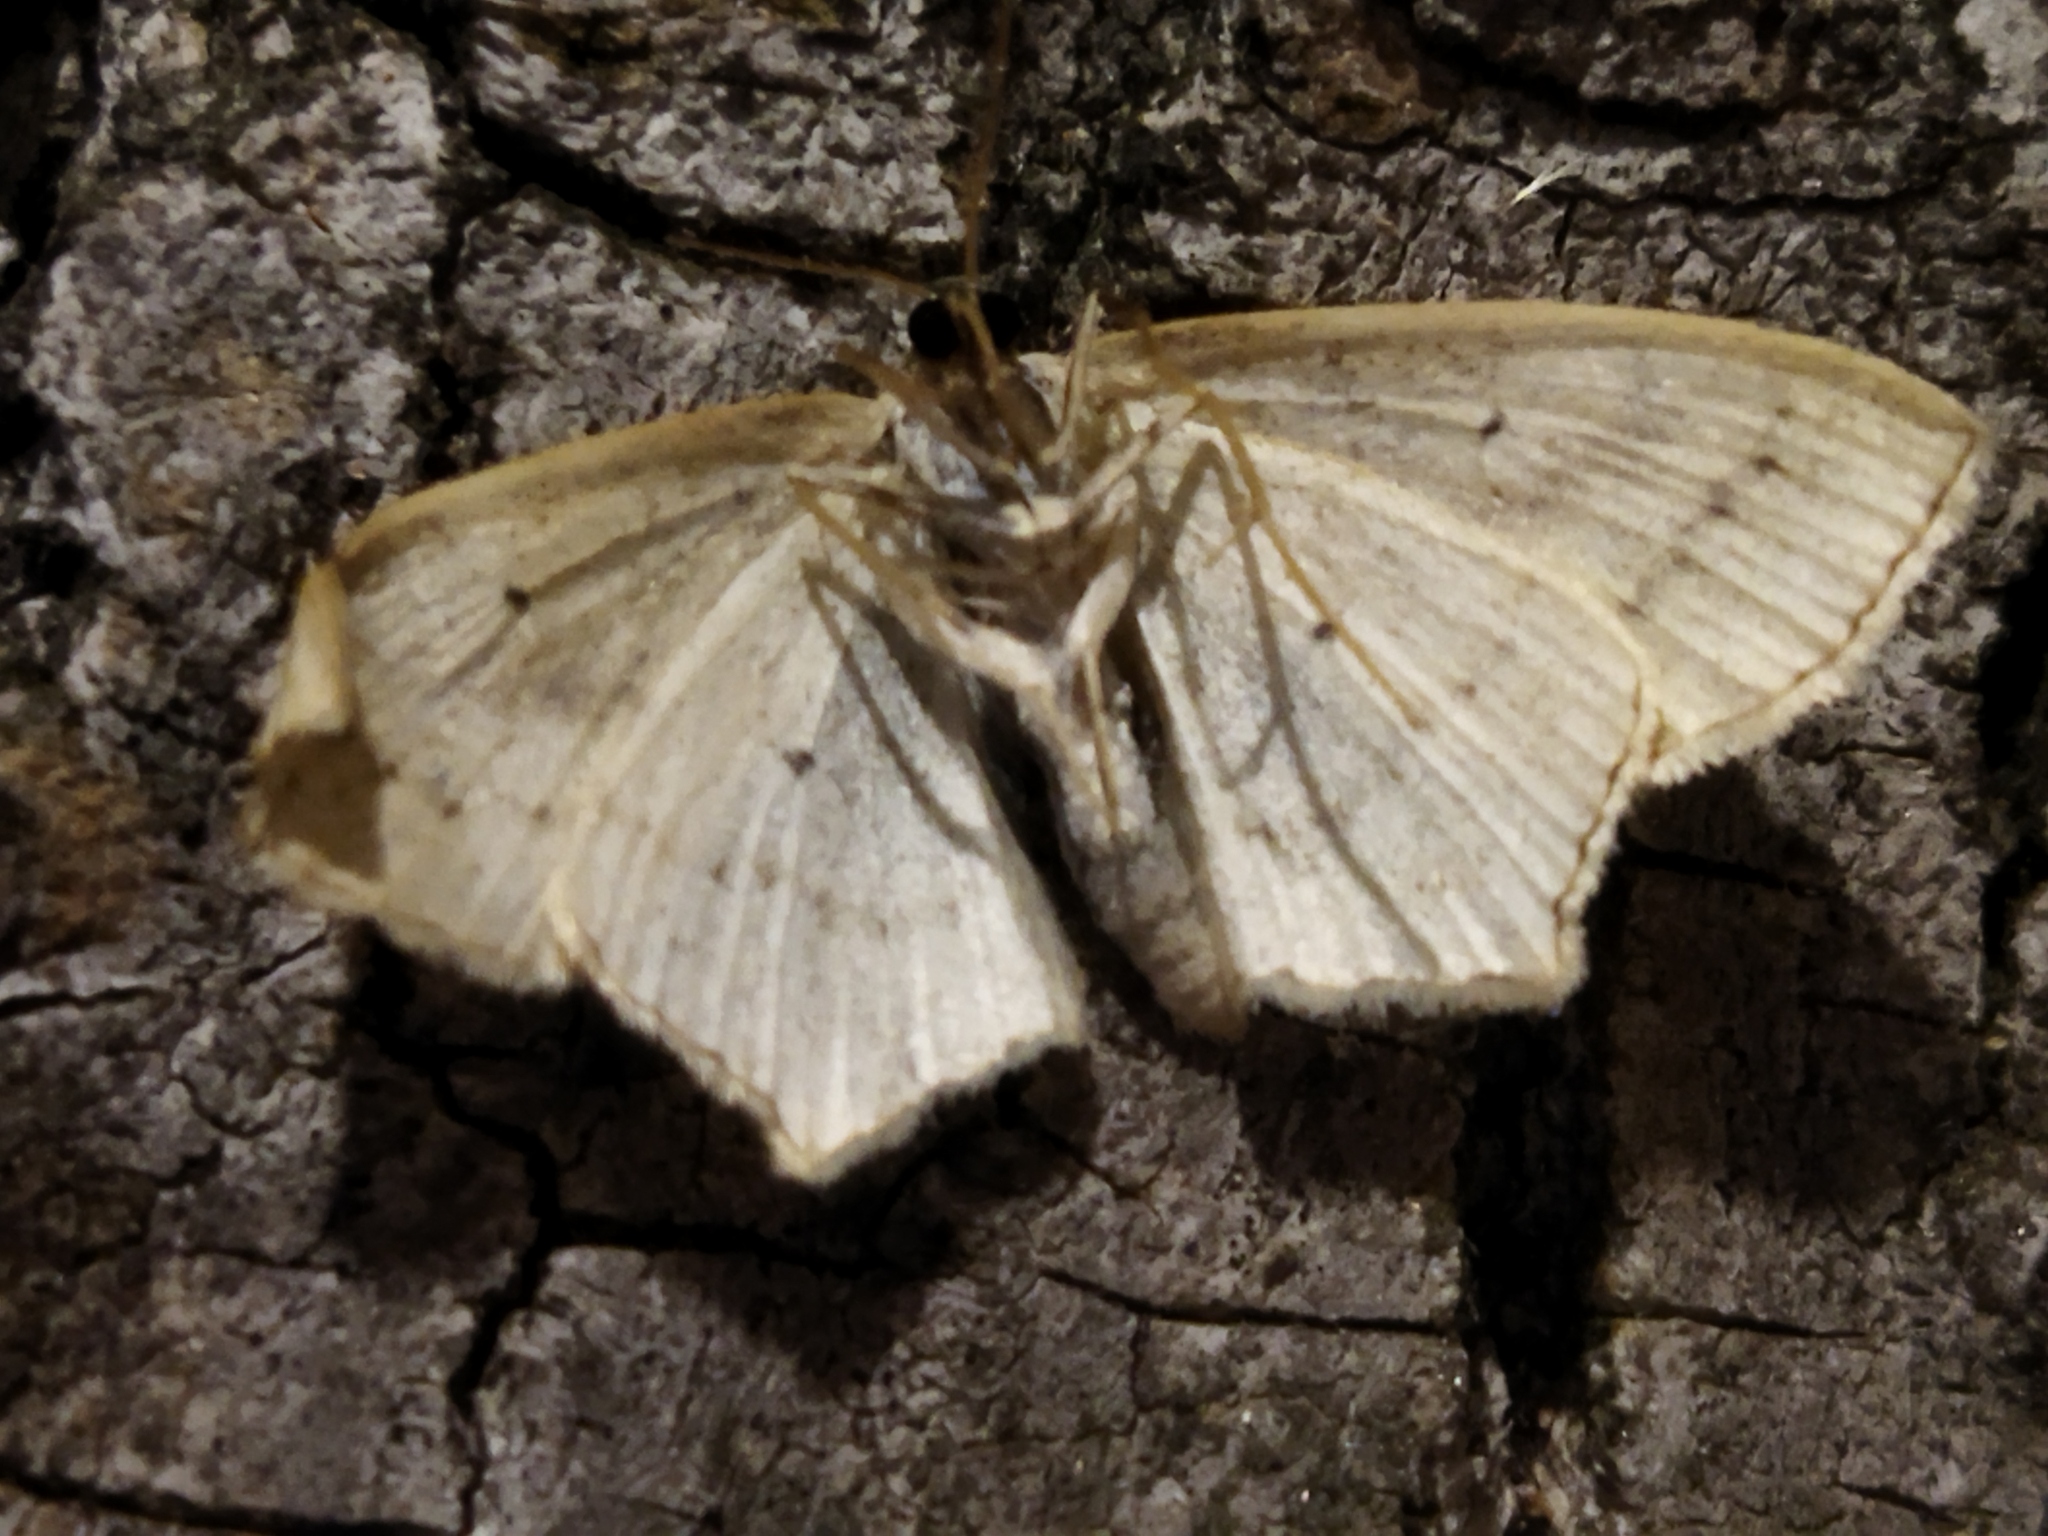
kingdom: Animalia
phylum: Arthropoda
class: Insecta
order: Lepidoptera
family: Geometridae
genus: Scopula
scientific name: Scopula flaccidaria
